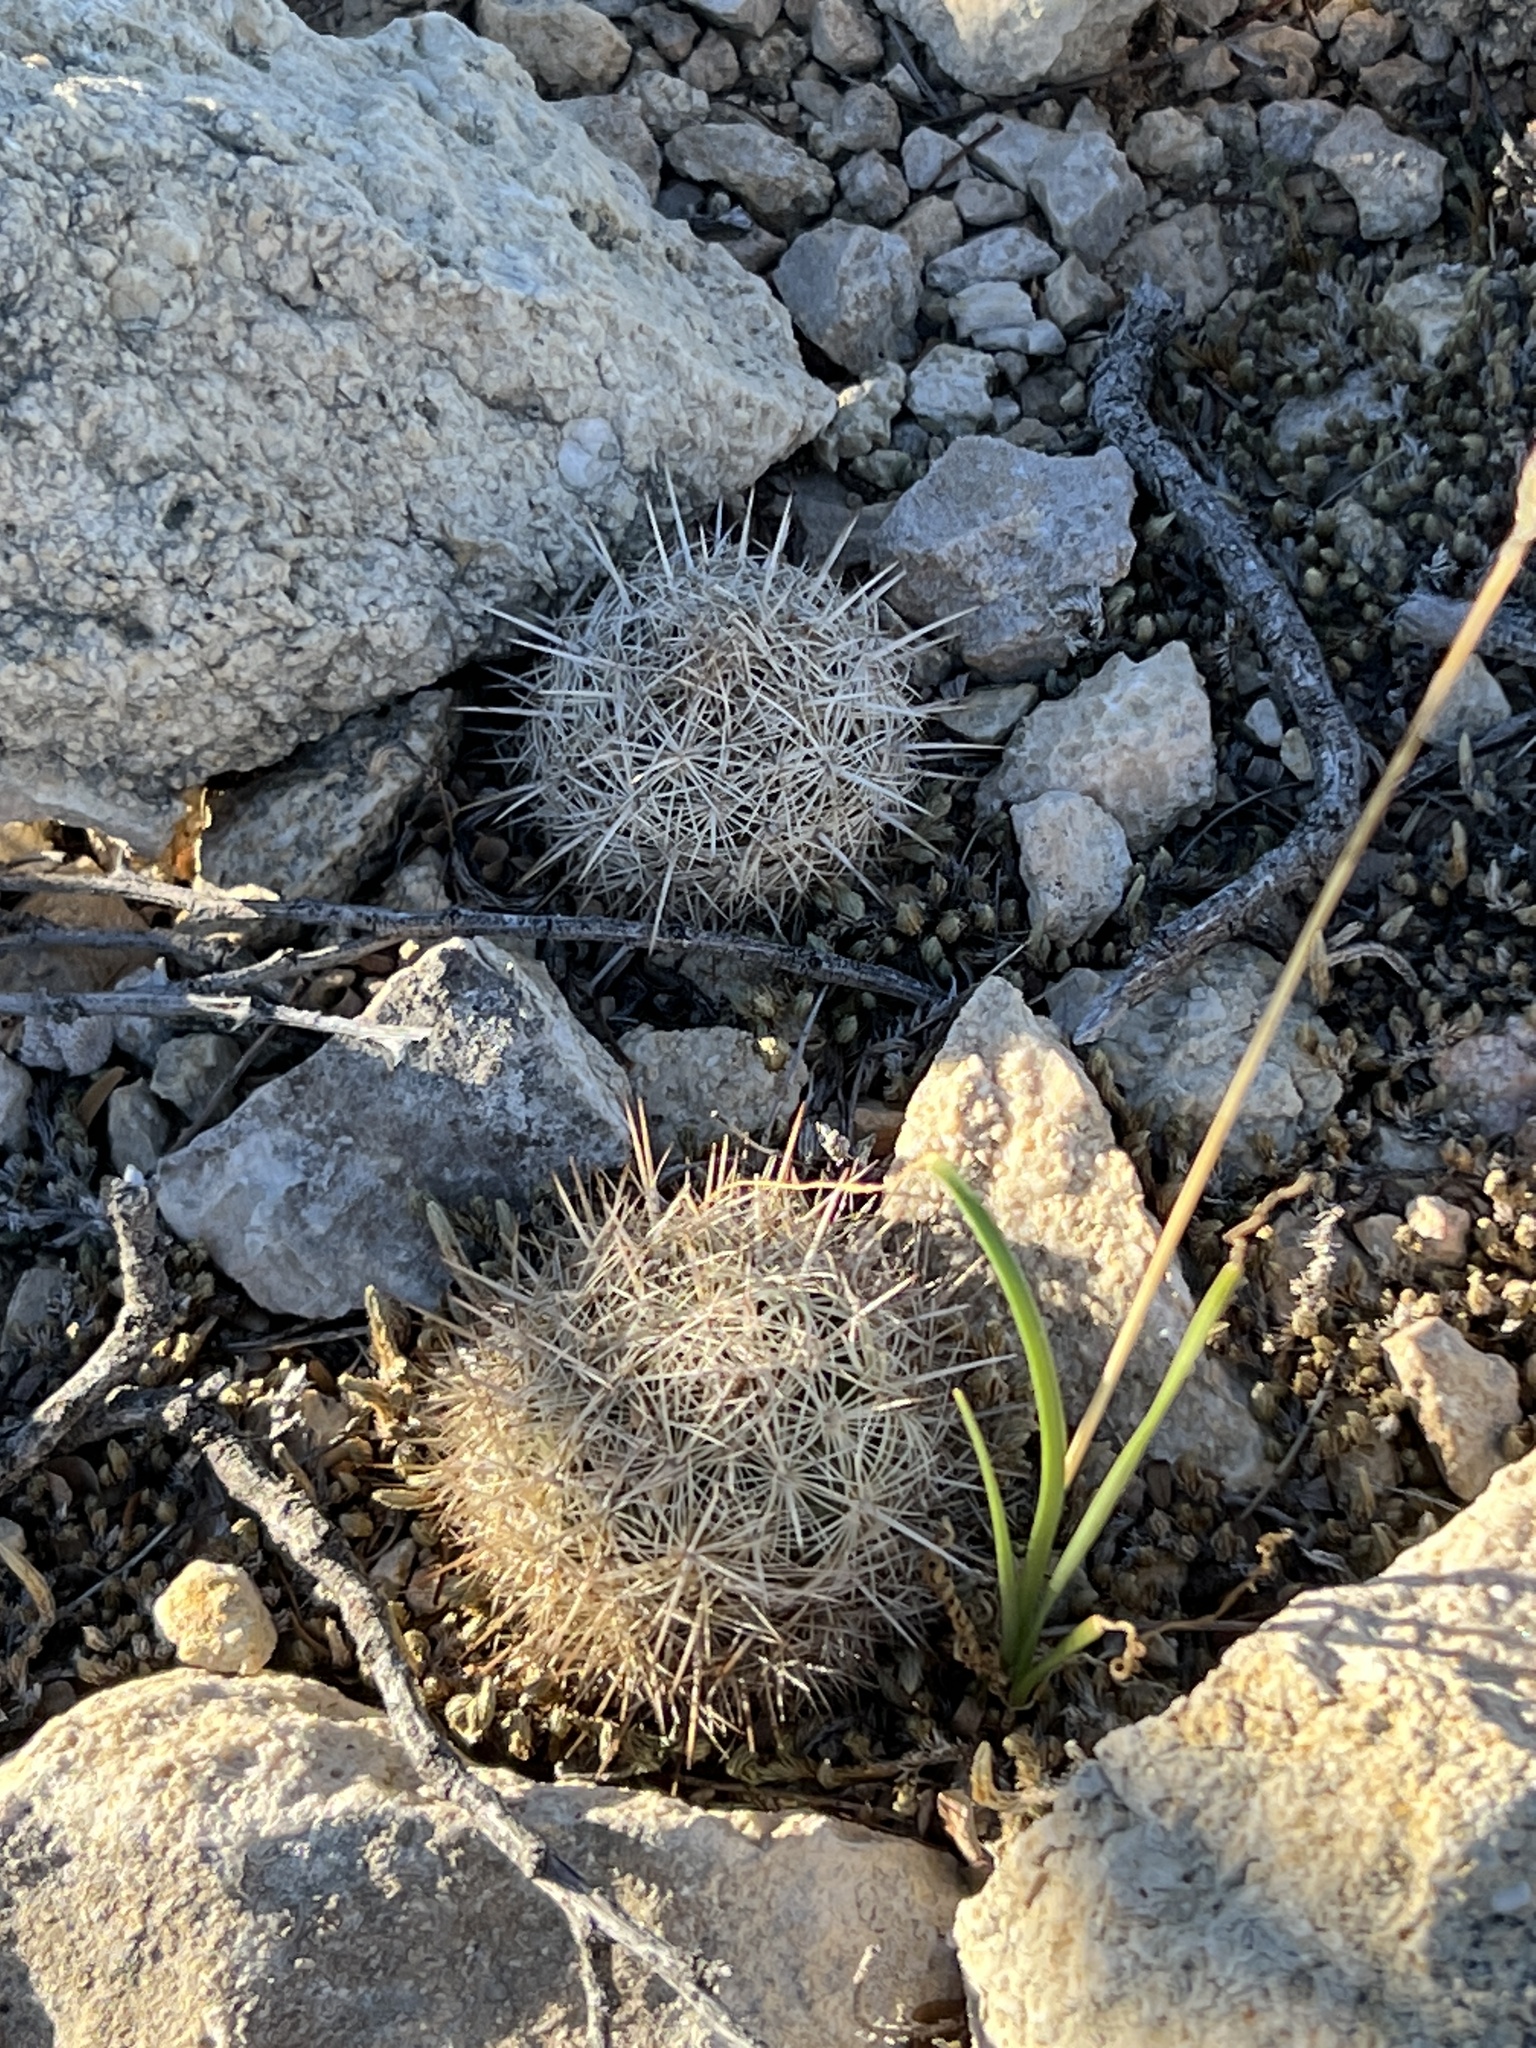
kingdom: Plantae
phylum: Tracheophyta
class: Magnoliopsida
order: Caryophyllales
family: Cactaceae
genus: Coryphantha
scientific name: Coryphantha echinus
